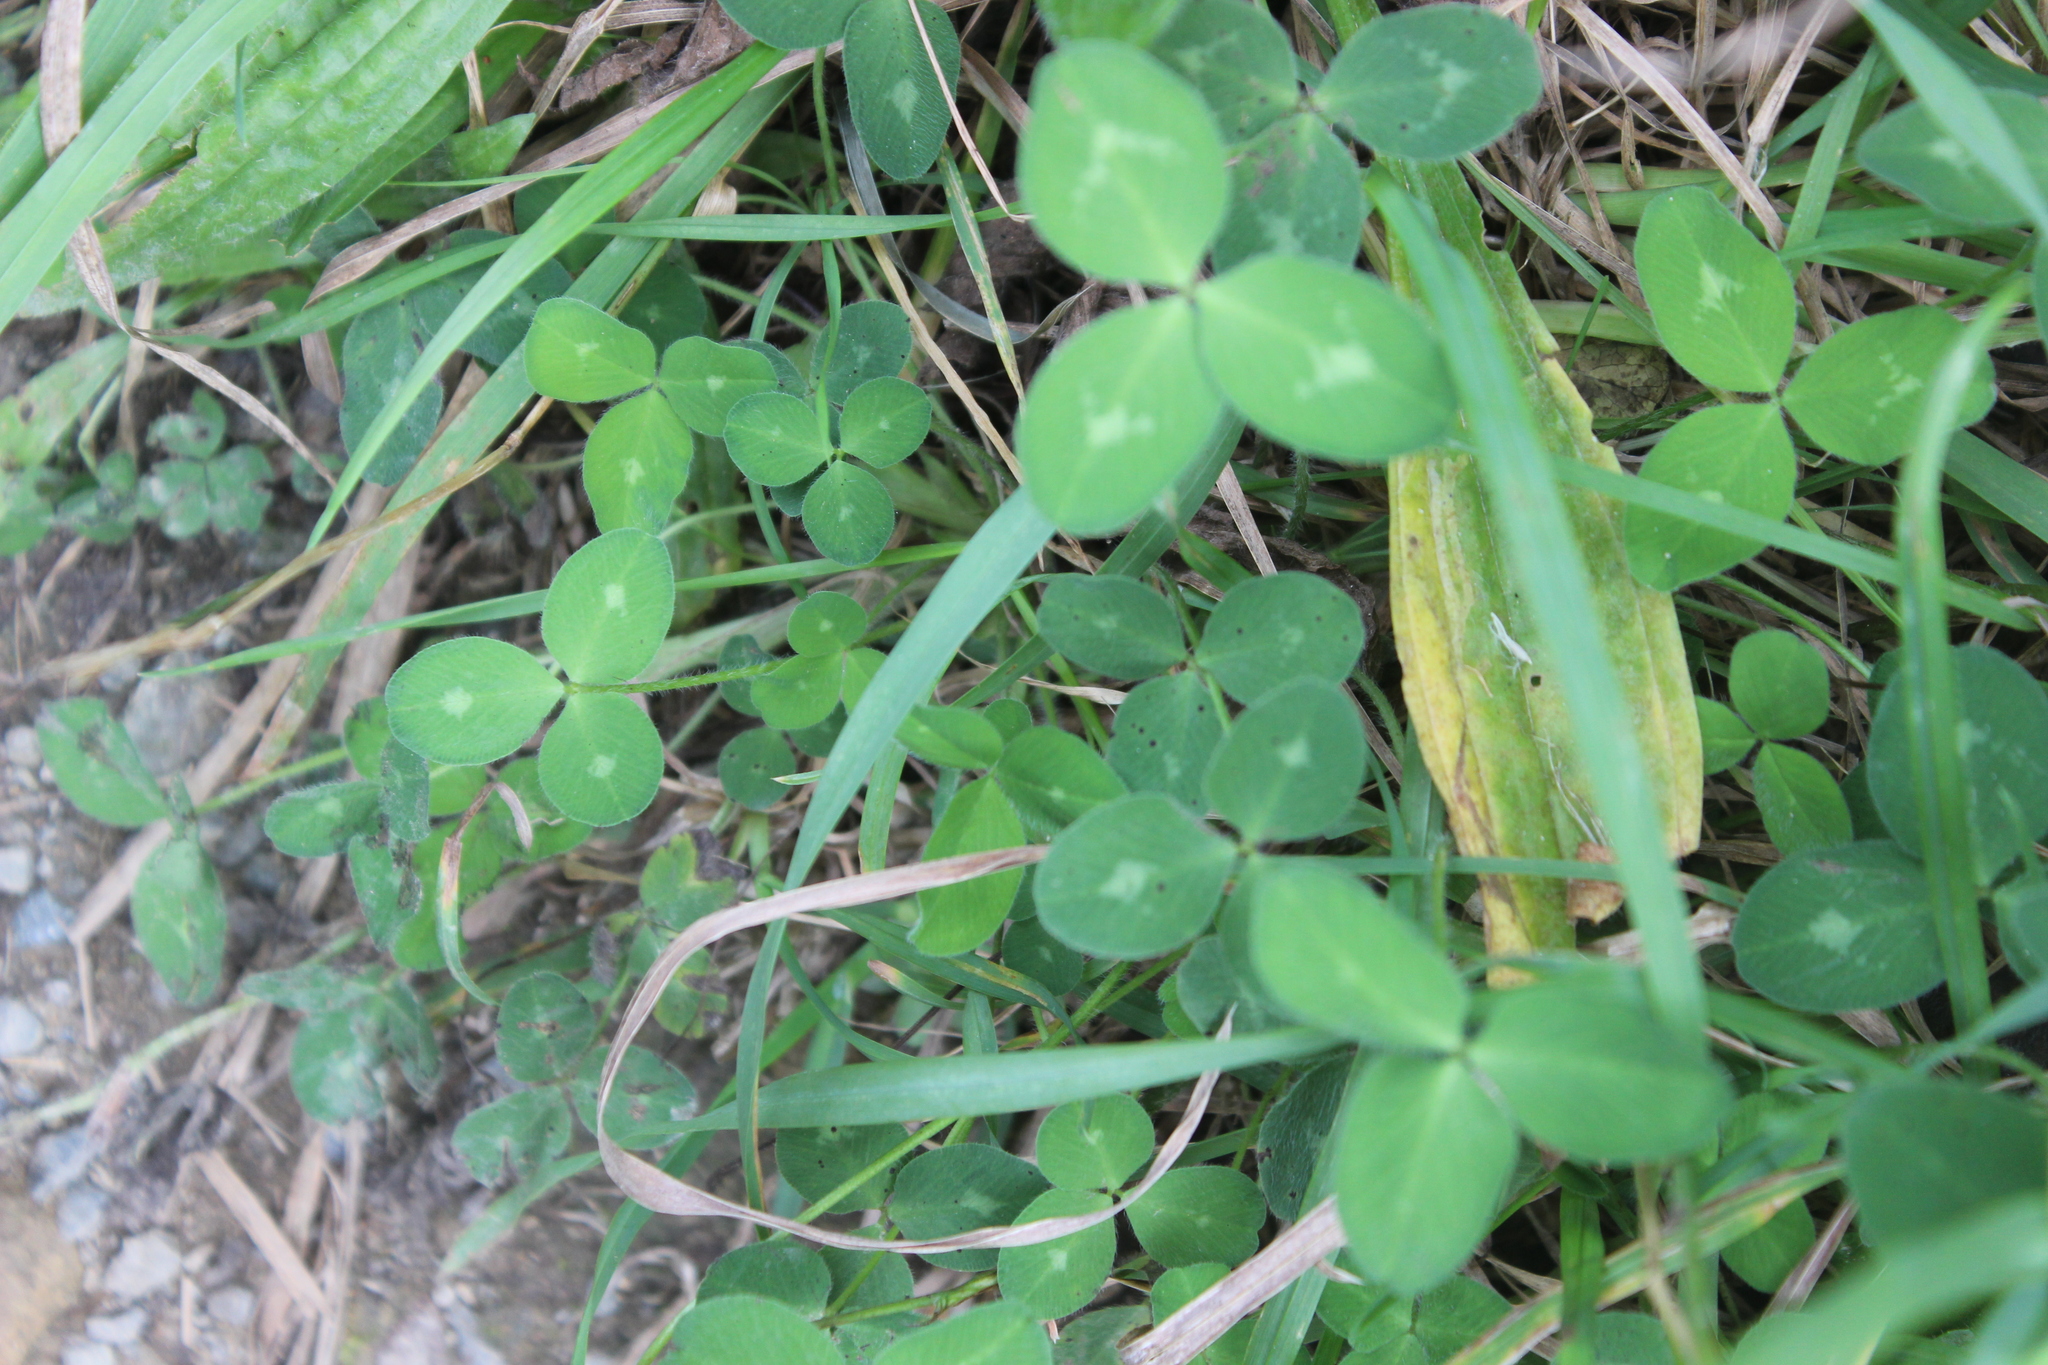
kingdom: Plantae
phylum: Tracheophyta
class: Magnoliopsida
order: Fabales
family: Fabaceae
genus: Trifolium
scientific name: Trifolium pratense
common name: Red clover
